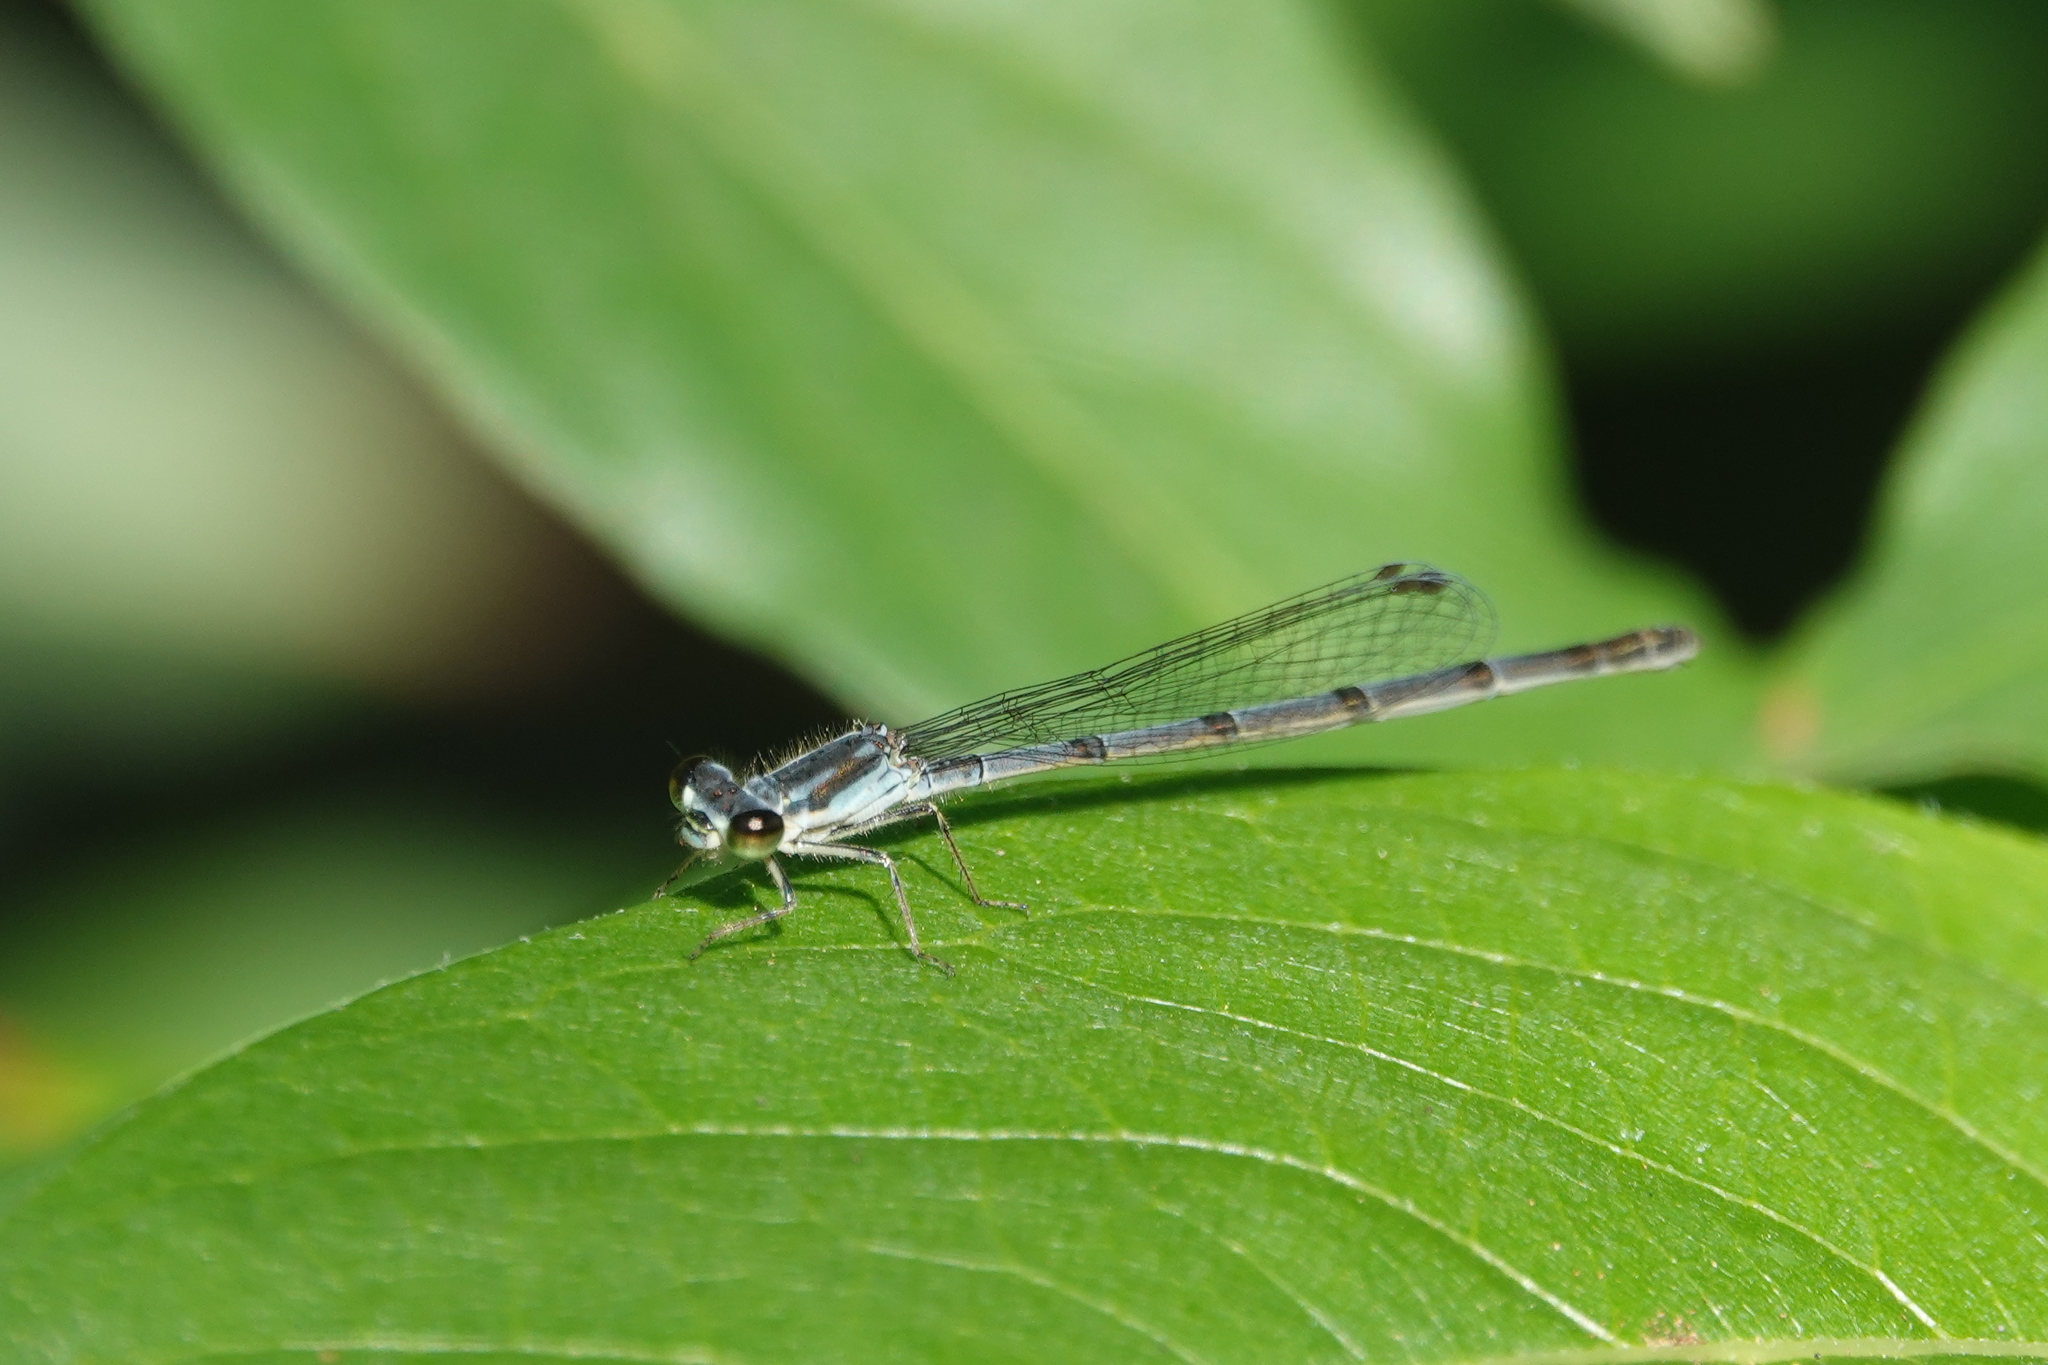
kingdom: Animalia
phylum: Arthropoda
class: Insecta
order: Odonata
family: Coenagrionidae
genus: Ischnura
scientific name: Ischnura posita
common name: Fragile forktail
